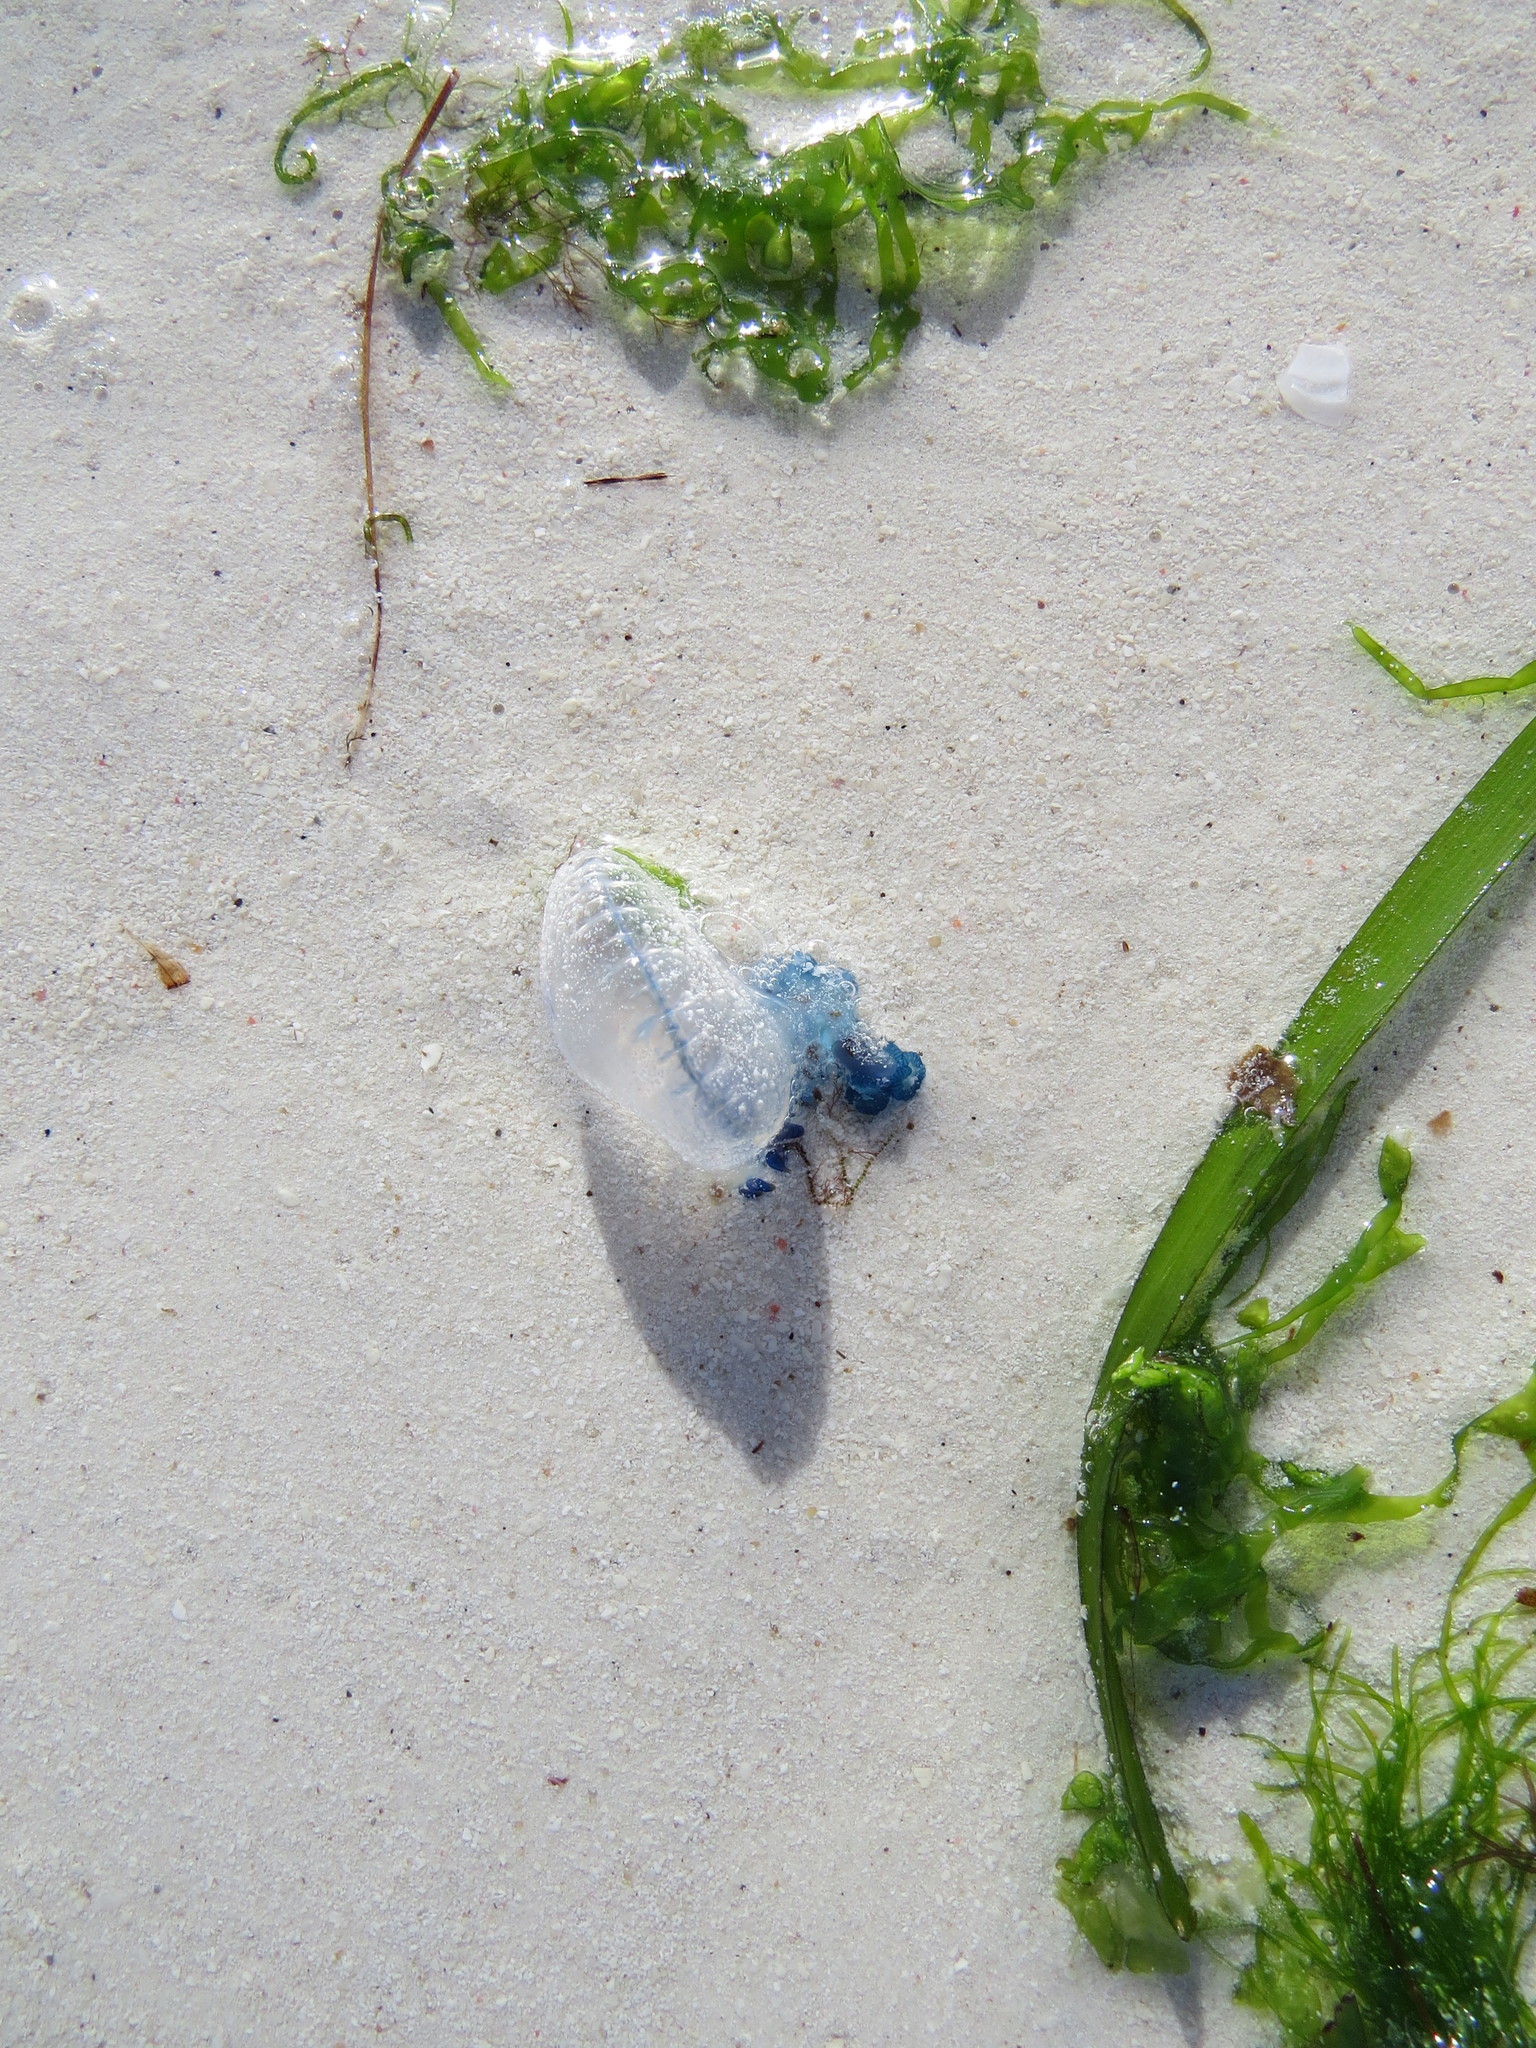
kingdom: Animalia
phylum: Cnidaria
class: Hydrozoa
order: Siphonophorae
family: Physaliidae
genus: Physalia
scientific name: Physalia physalis
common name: Portuguese man-of-war
